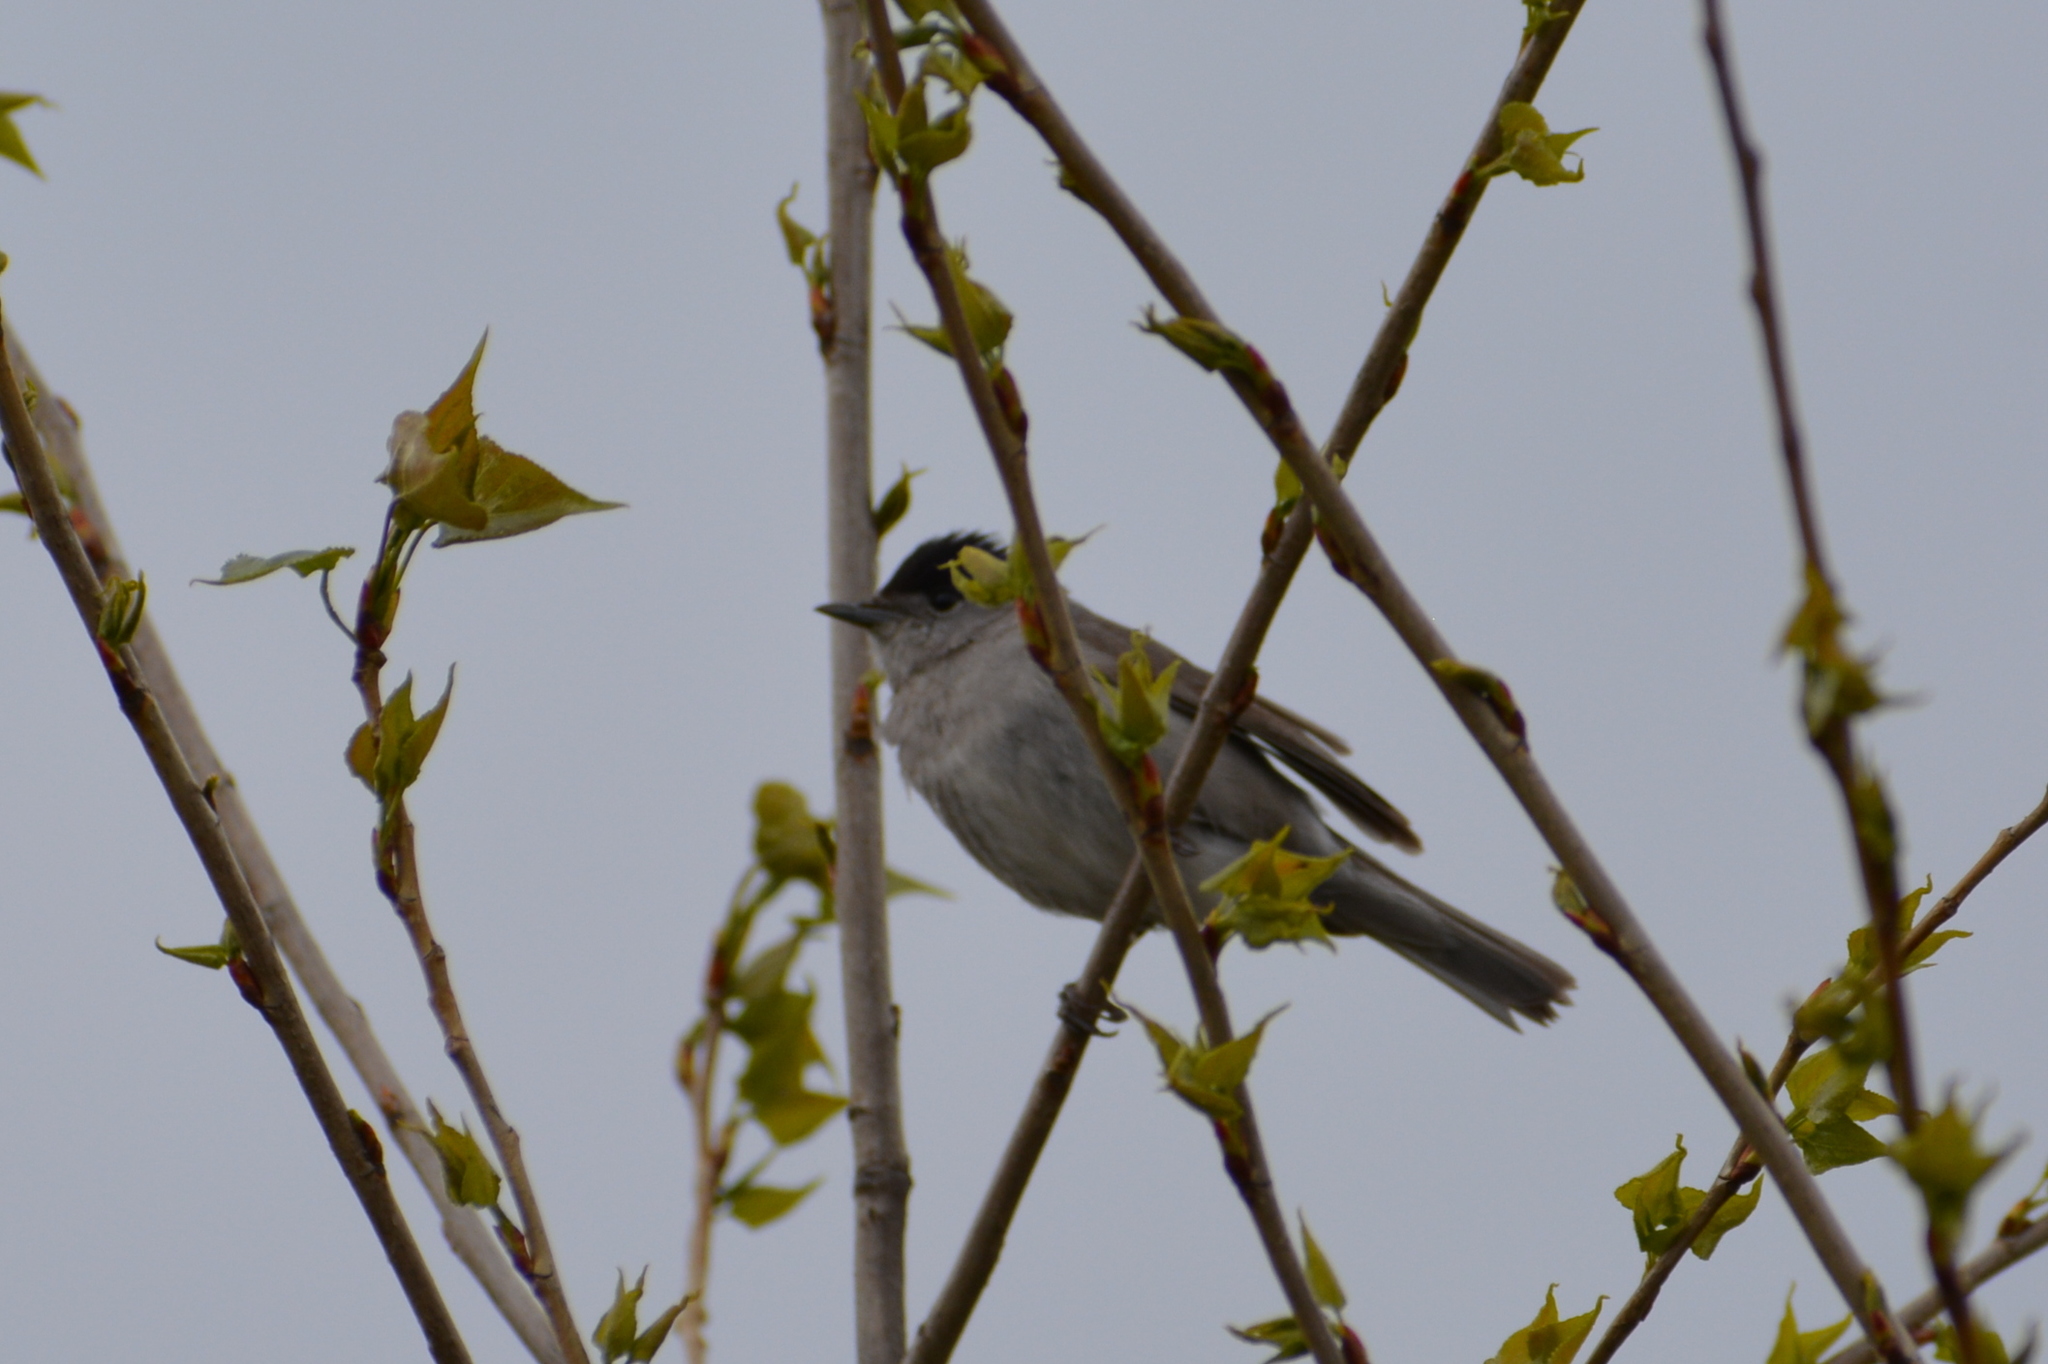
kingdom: Animalia
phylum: Chordata
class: Aves
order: Passeriformes
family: Sylviidae
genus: Sylvia
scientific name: Sylvia atricapilla
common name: Eurasian blackcap
